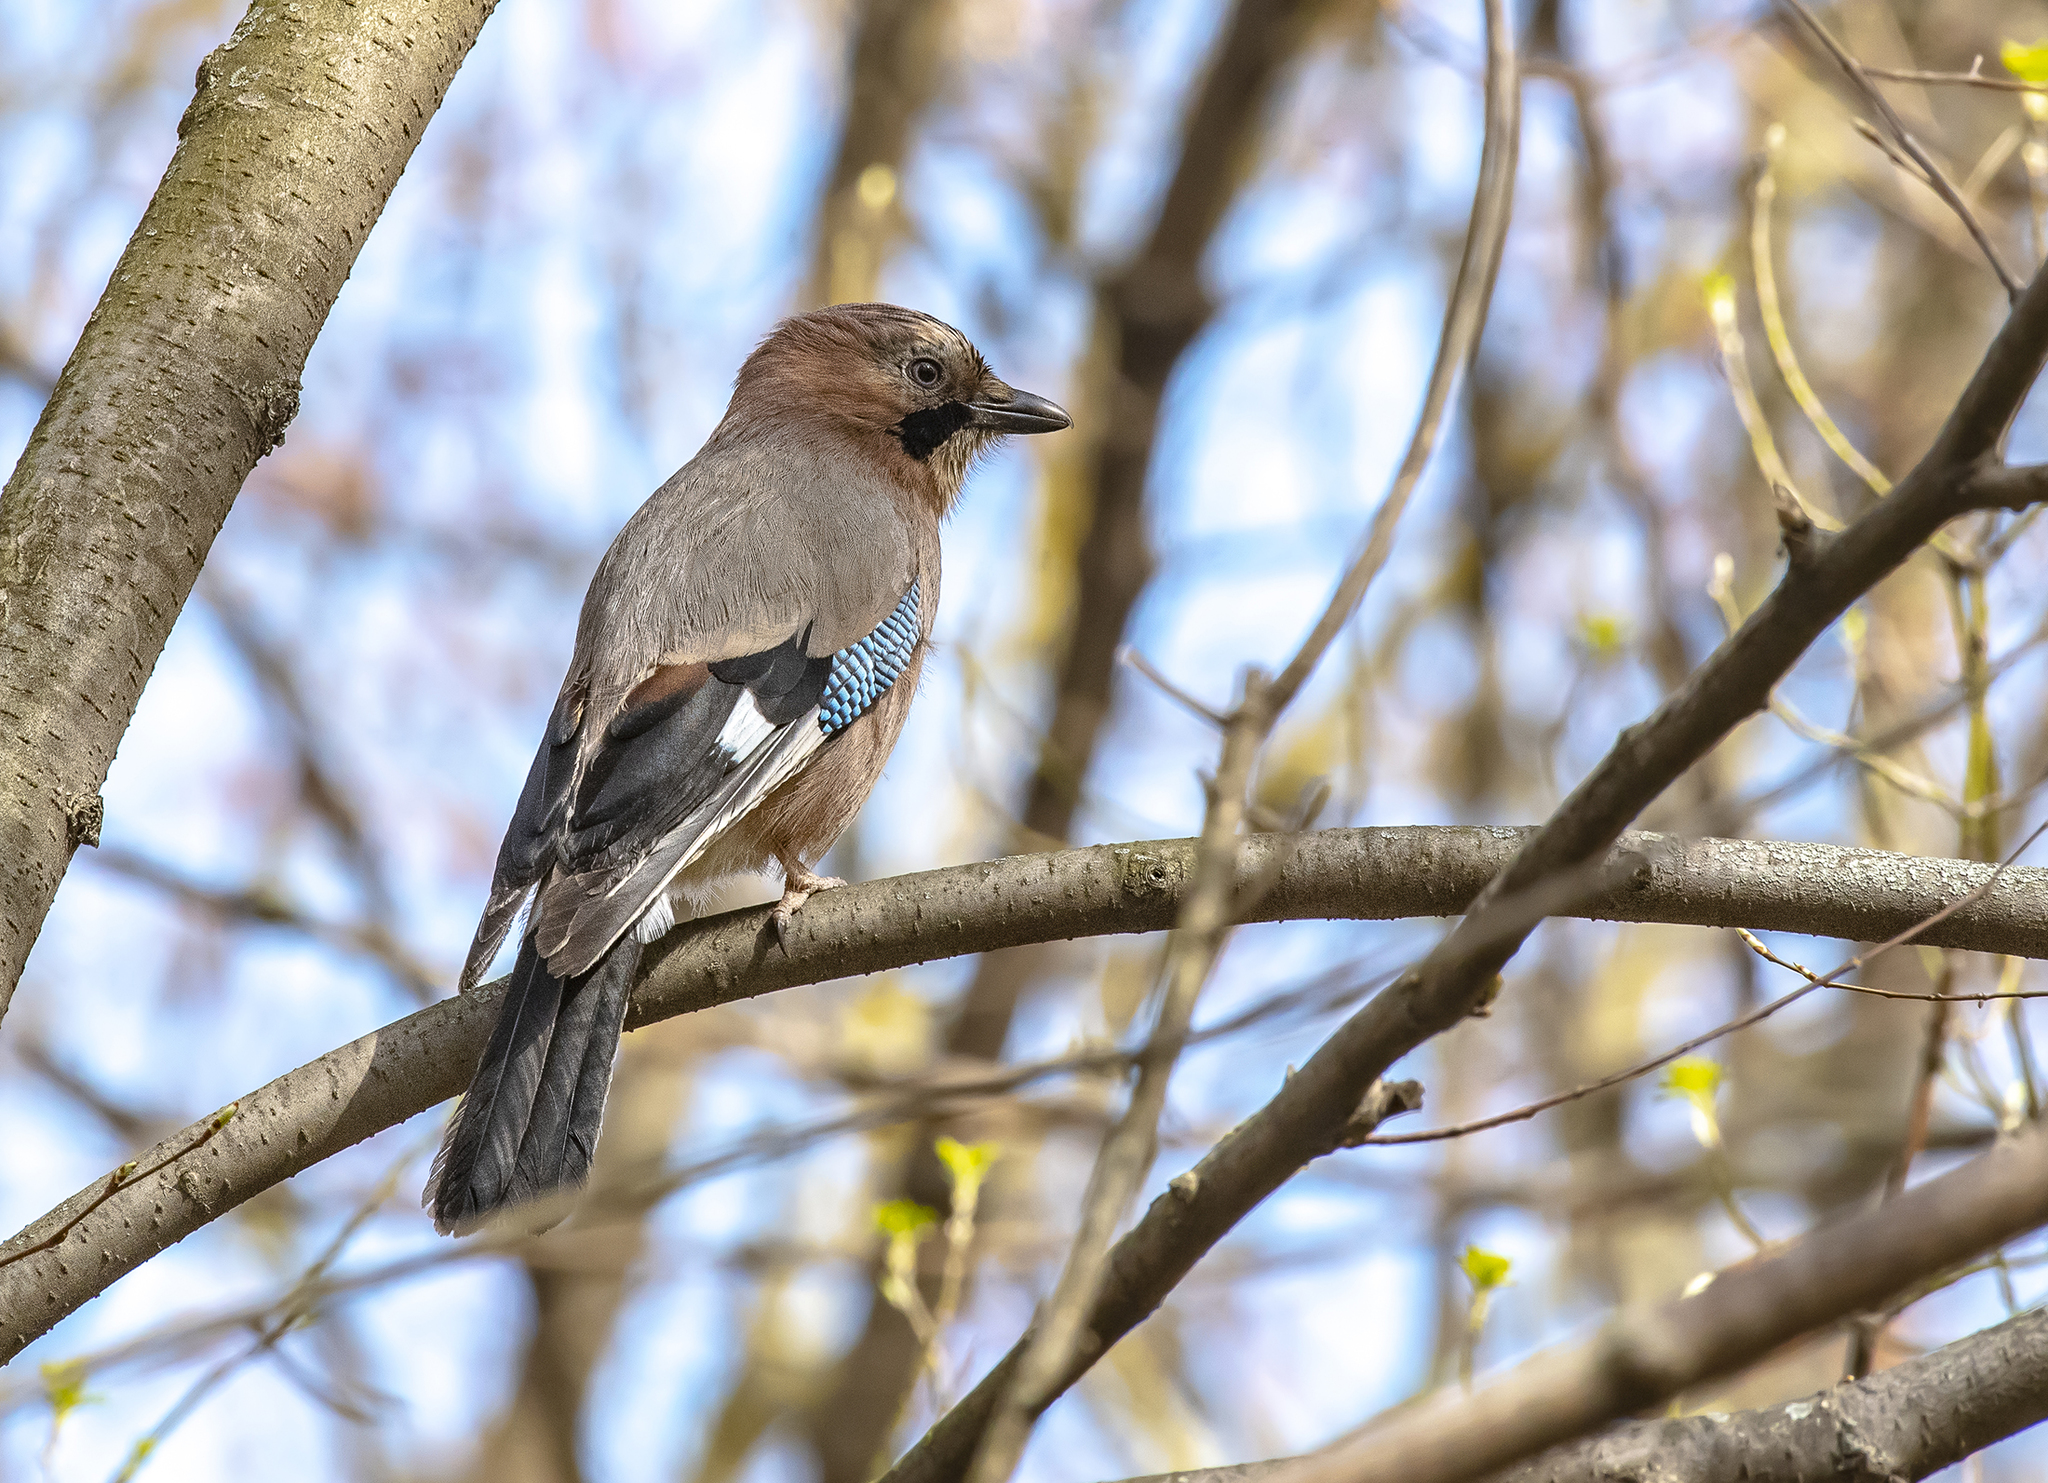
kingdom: Animalia
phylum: Chordata
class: Aves
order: Passeriformes
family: Corvidae
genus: Garrulus
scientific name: Garrulus glandarius
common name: Eurasian jay
